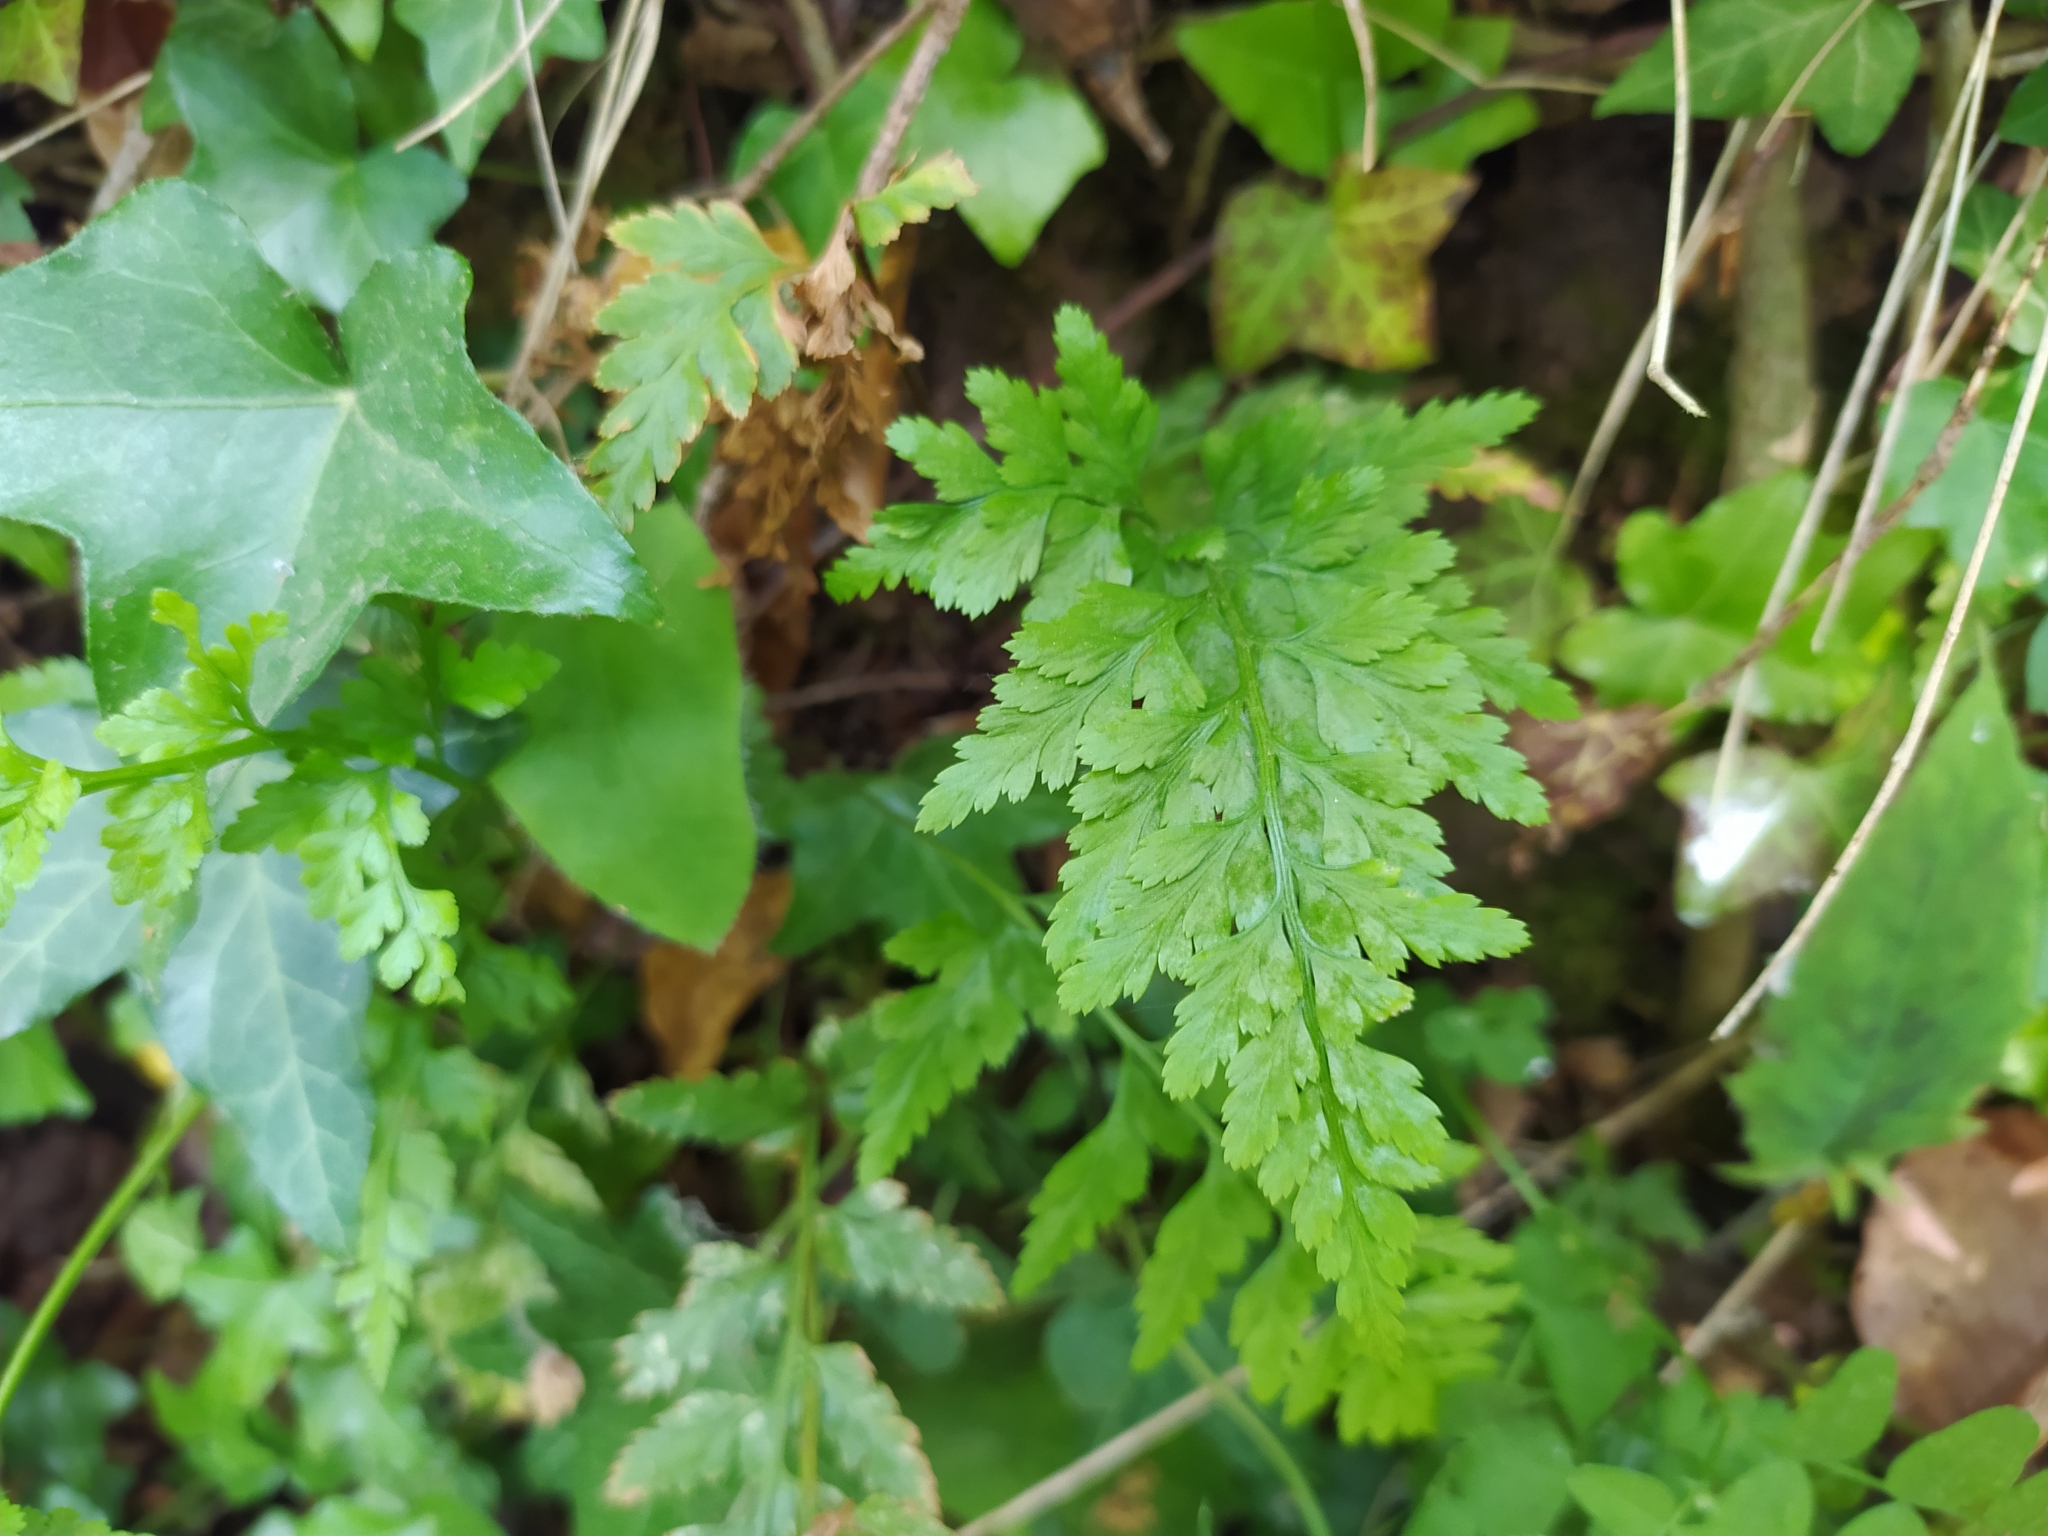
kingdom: Plantae
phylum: Tracheophyta
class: Polypodiopsida
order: Polypodiales
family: Aspleniaceae
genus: Asplenium
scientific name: Asplenium adiantum-nigrum
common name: Black spleenwort
